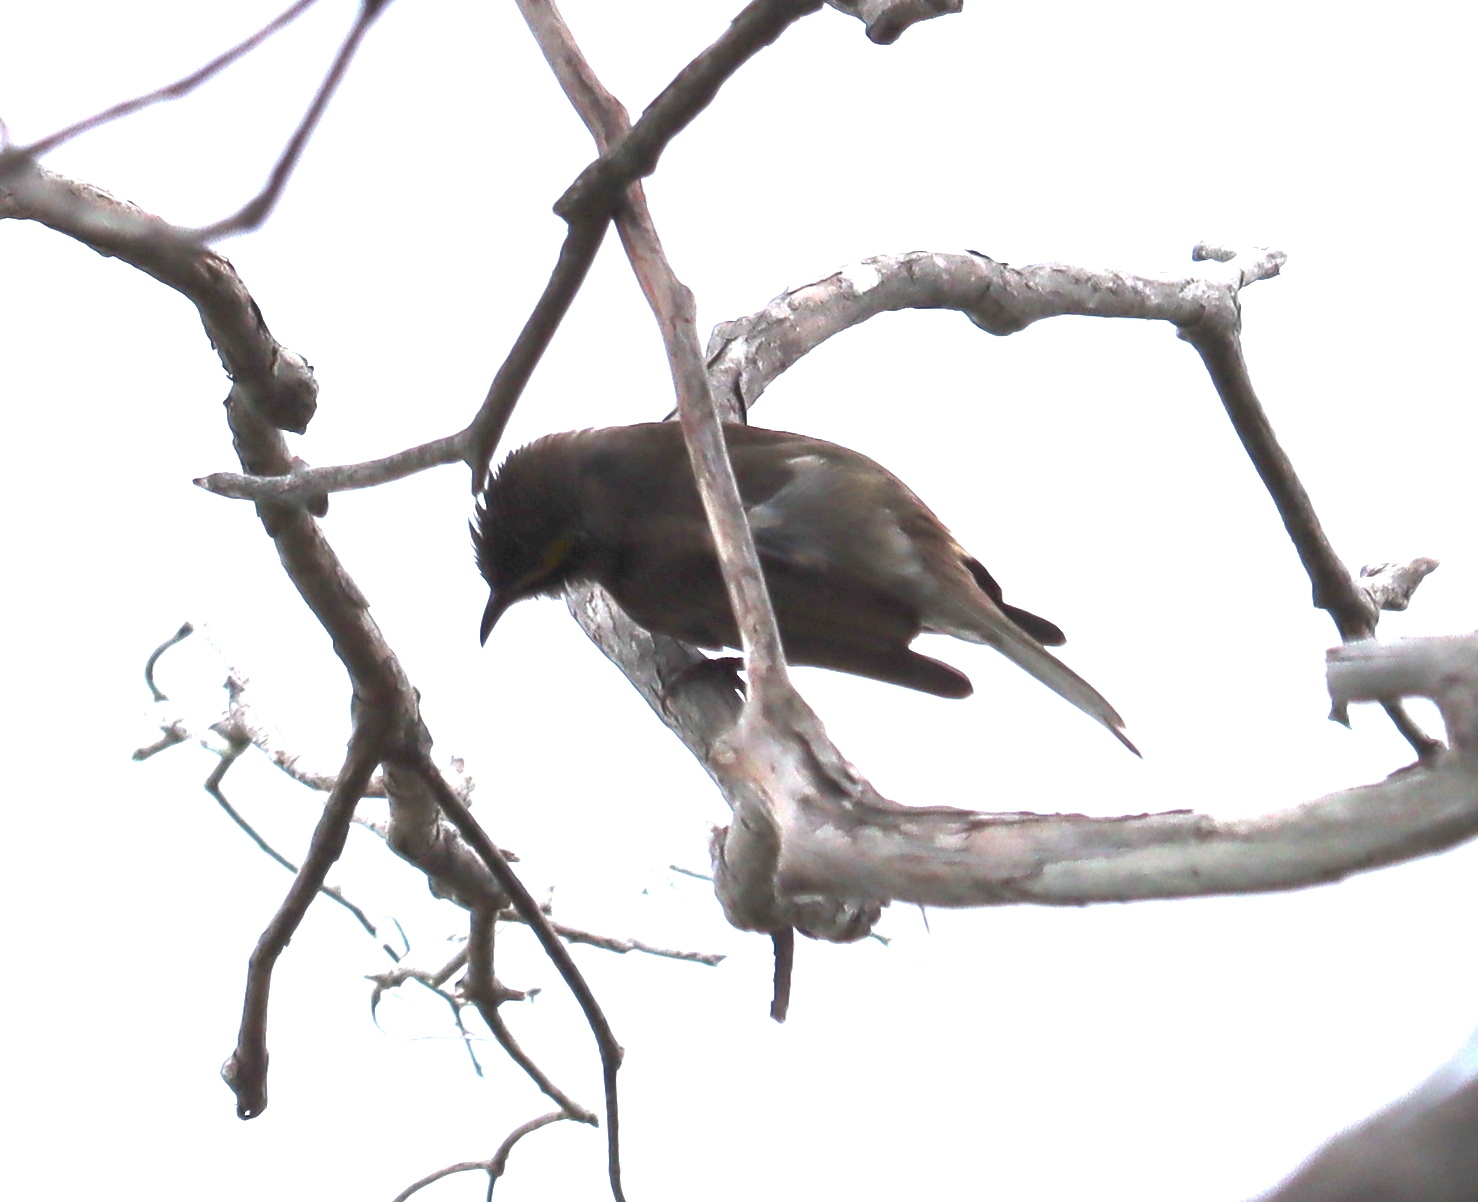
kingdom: Animalia
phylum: Chordata
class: Aves
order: Passeriformes
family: Meliphagidae
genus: Caligavis
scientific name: Caligavis chrysops
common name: Yellow-faced honeyeater
